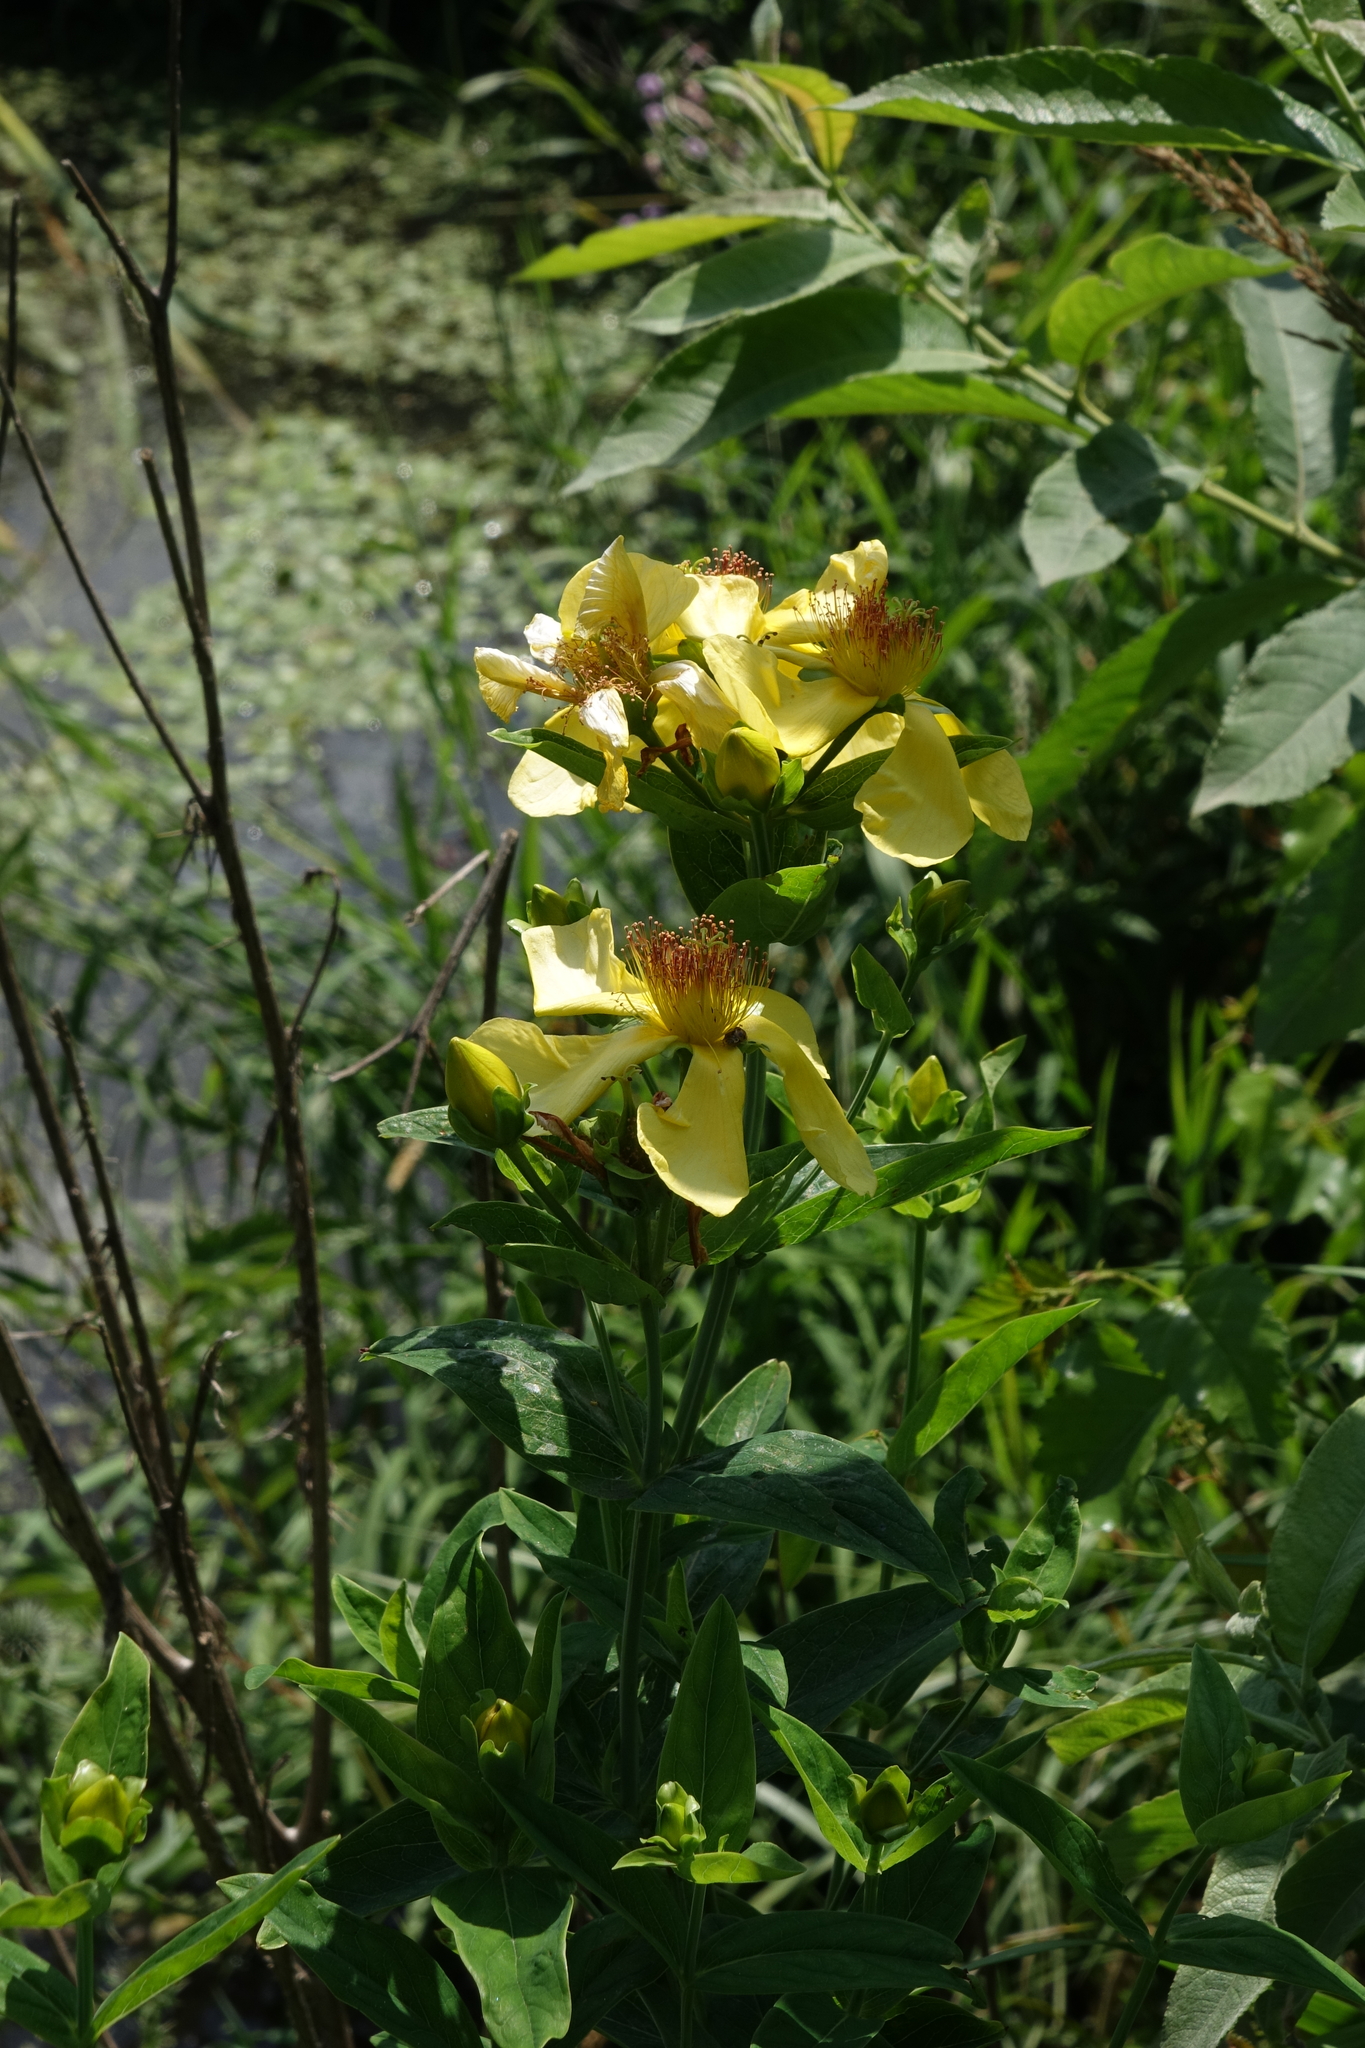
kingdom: Plantae
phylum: Tracheophyta
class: Magnoliopsida
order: Malpighiales
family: Hypericaceae
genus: Hypericum
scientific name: Hypericum ascyron
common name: Giant st. john's-wort
